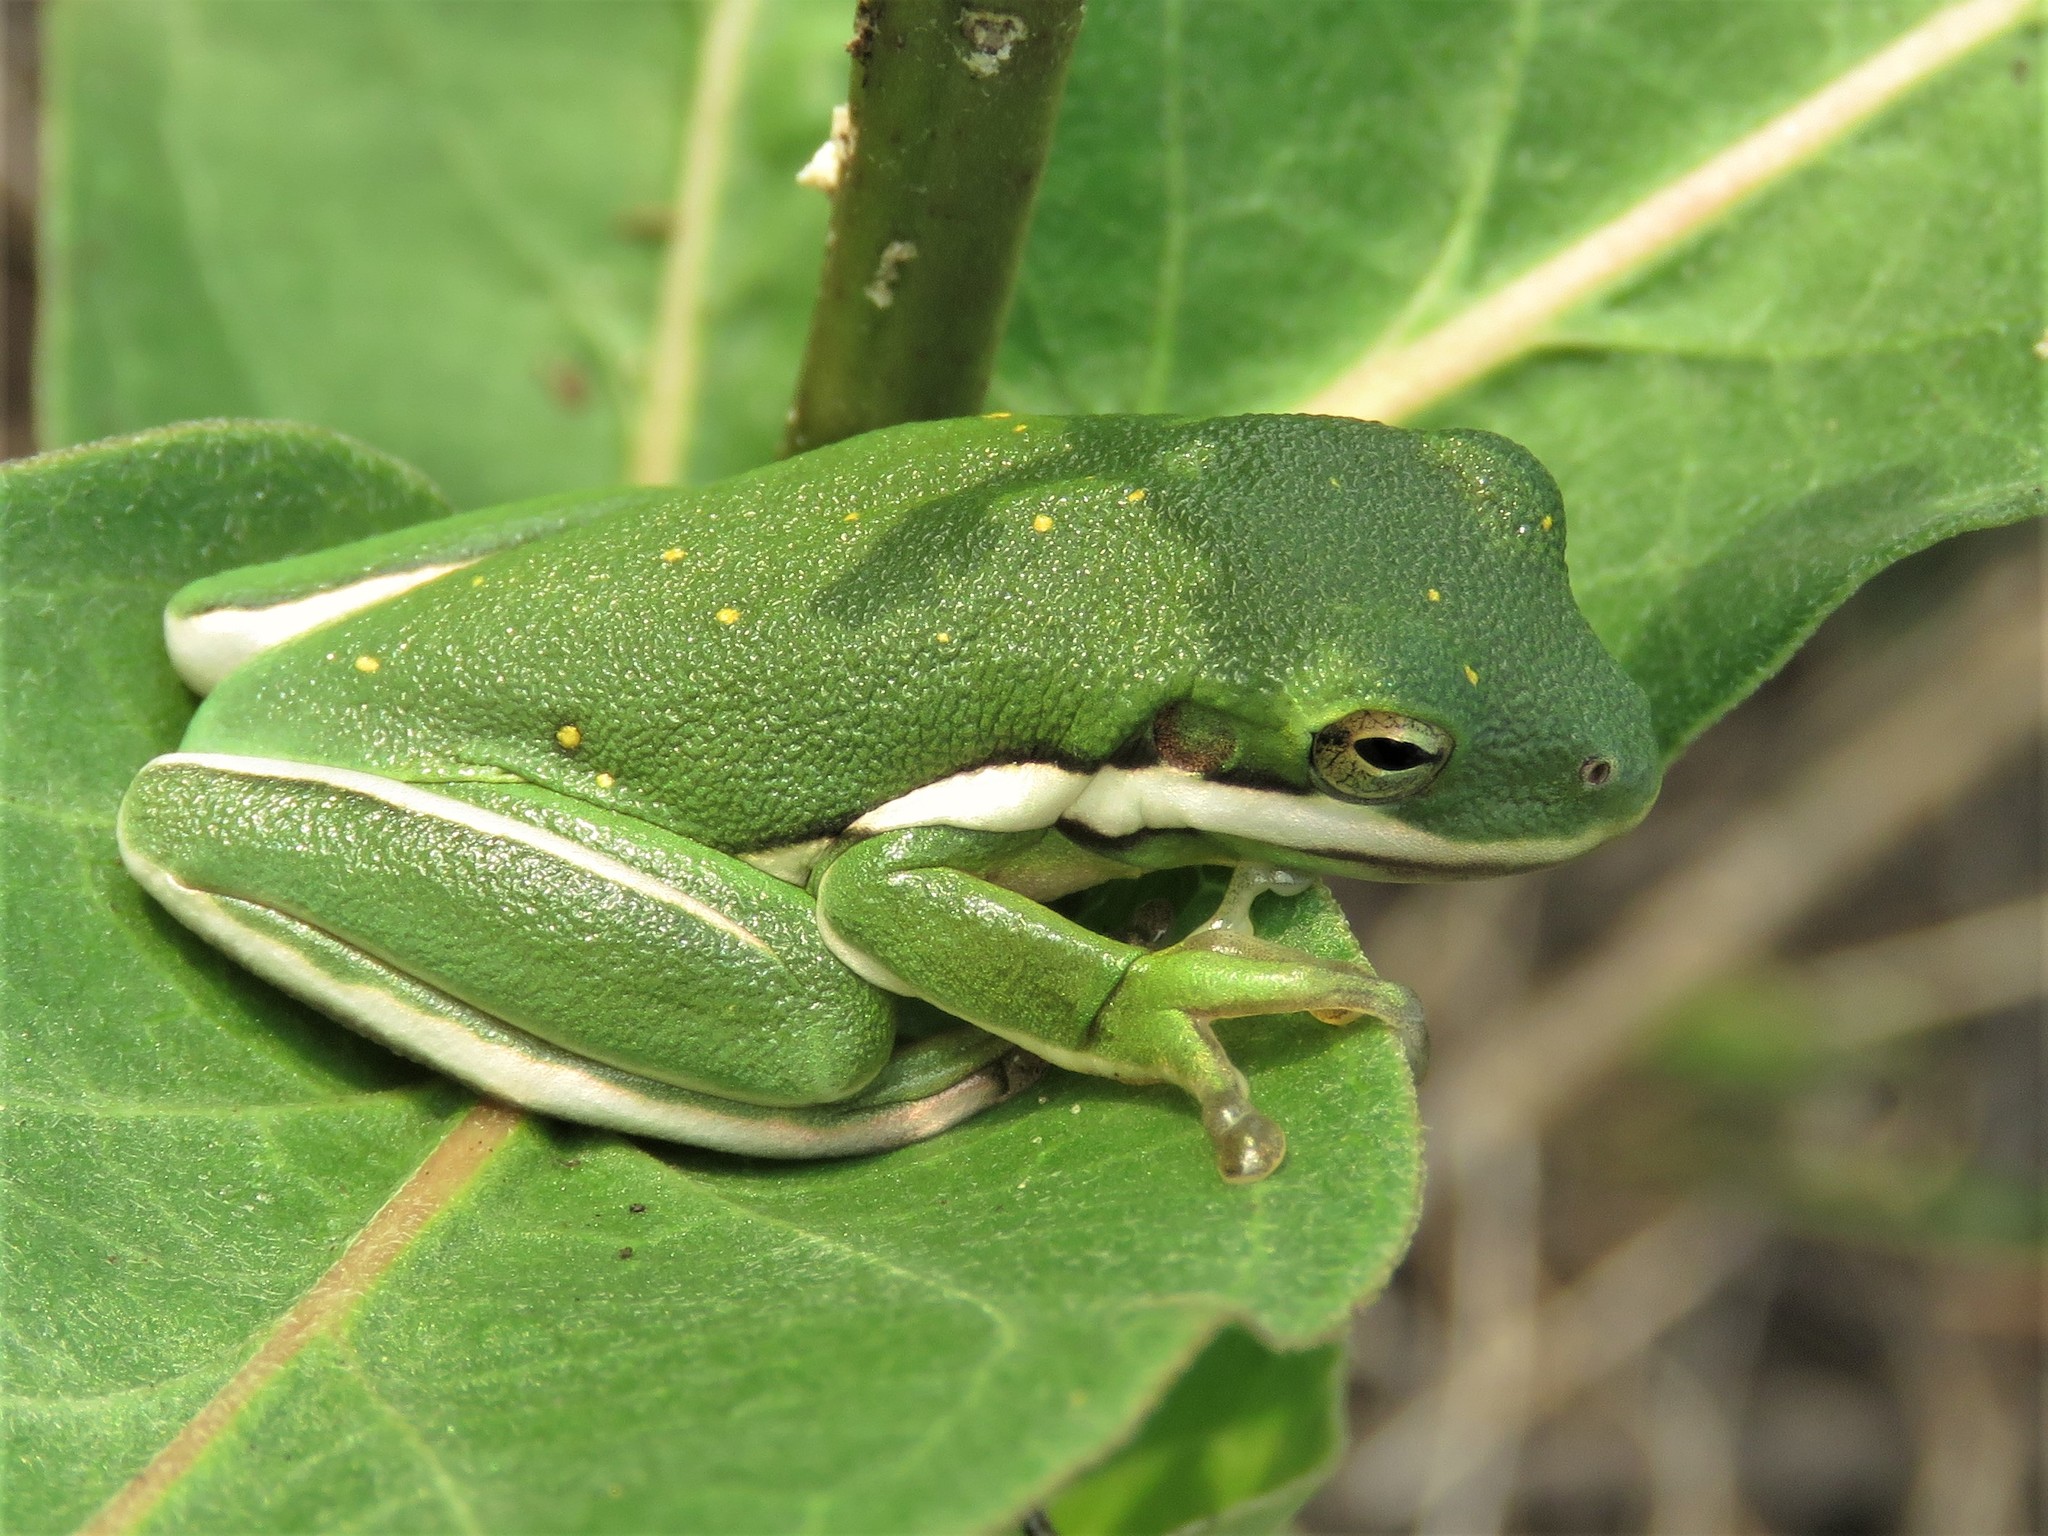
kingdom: Animalia
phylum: Chordata
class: Amphibia
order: Anura
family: Hylidae
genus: Dryophytes
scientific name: Dryophytes cinereus
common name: Green treefrog
